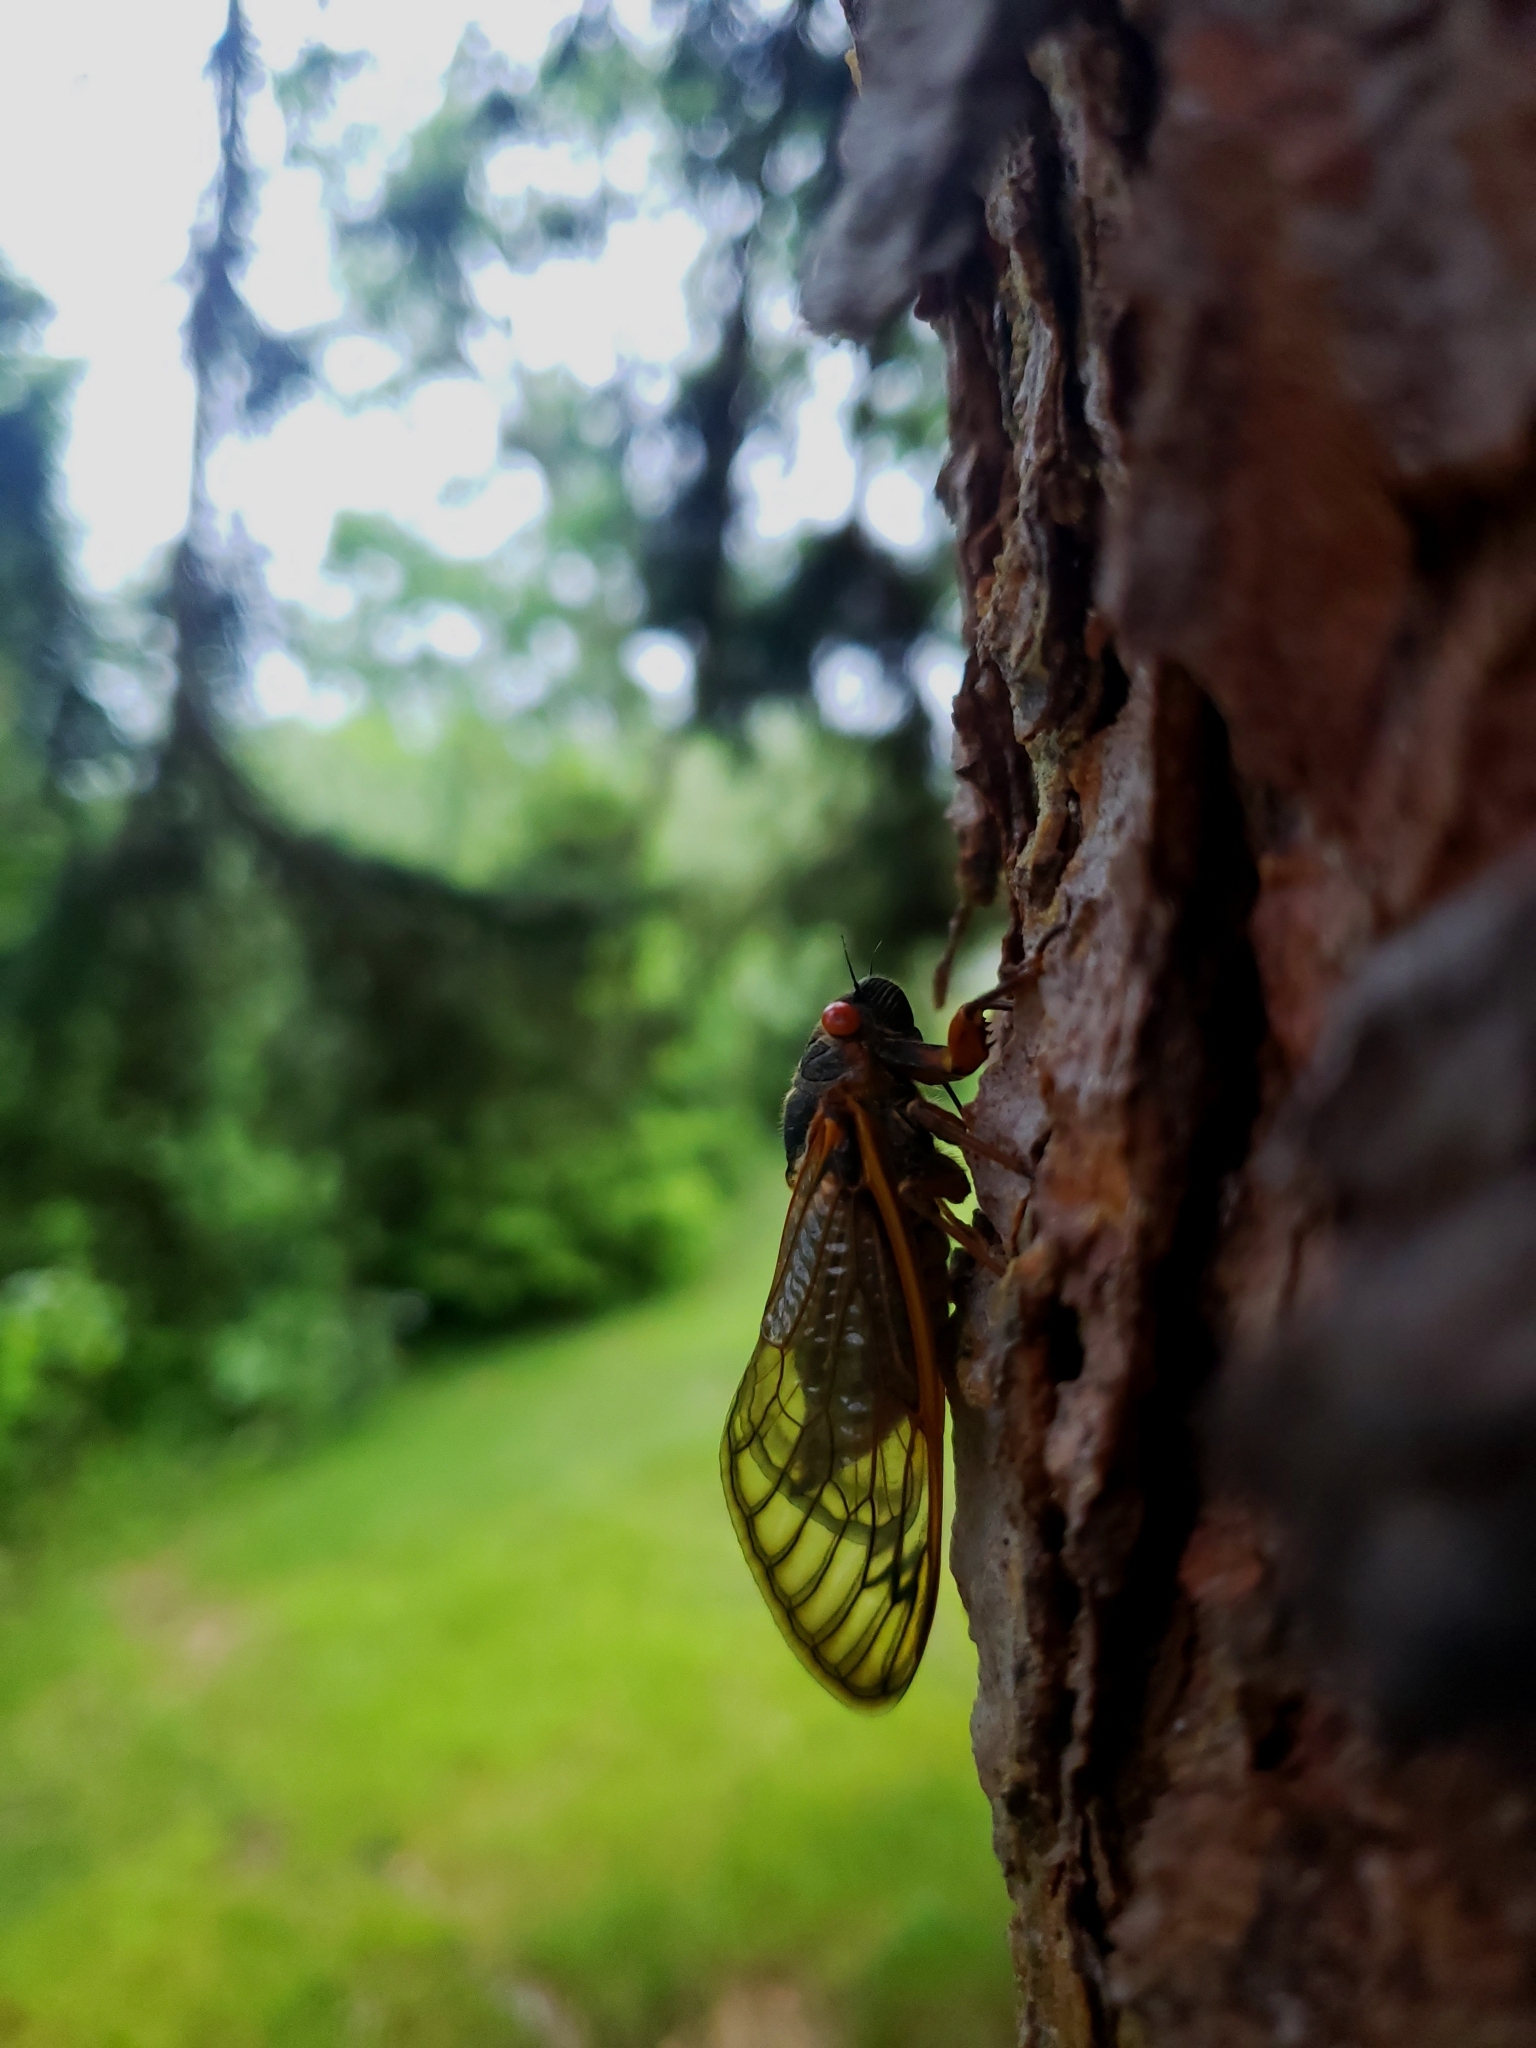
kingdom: Animalia
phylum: Arthropoda
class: Insecta
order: Hemiptera
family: Cicadidae
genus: Magicicada
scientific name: Magicicada septendecim
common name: Periodical cicada
